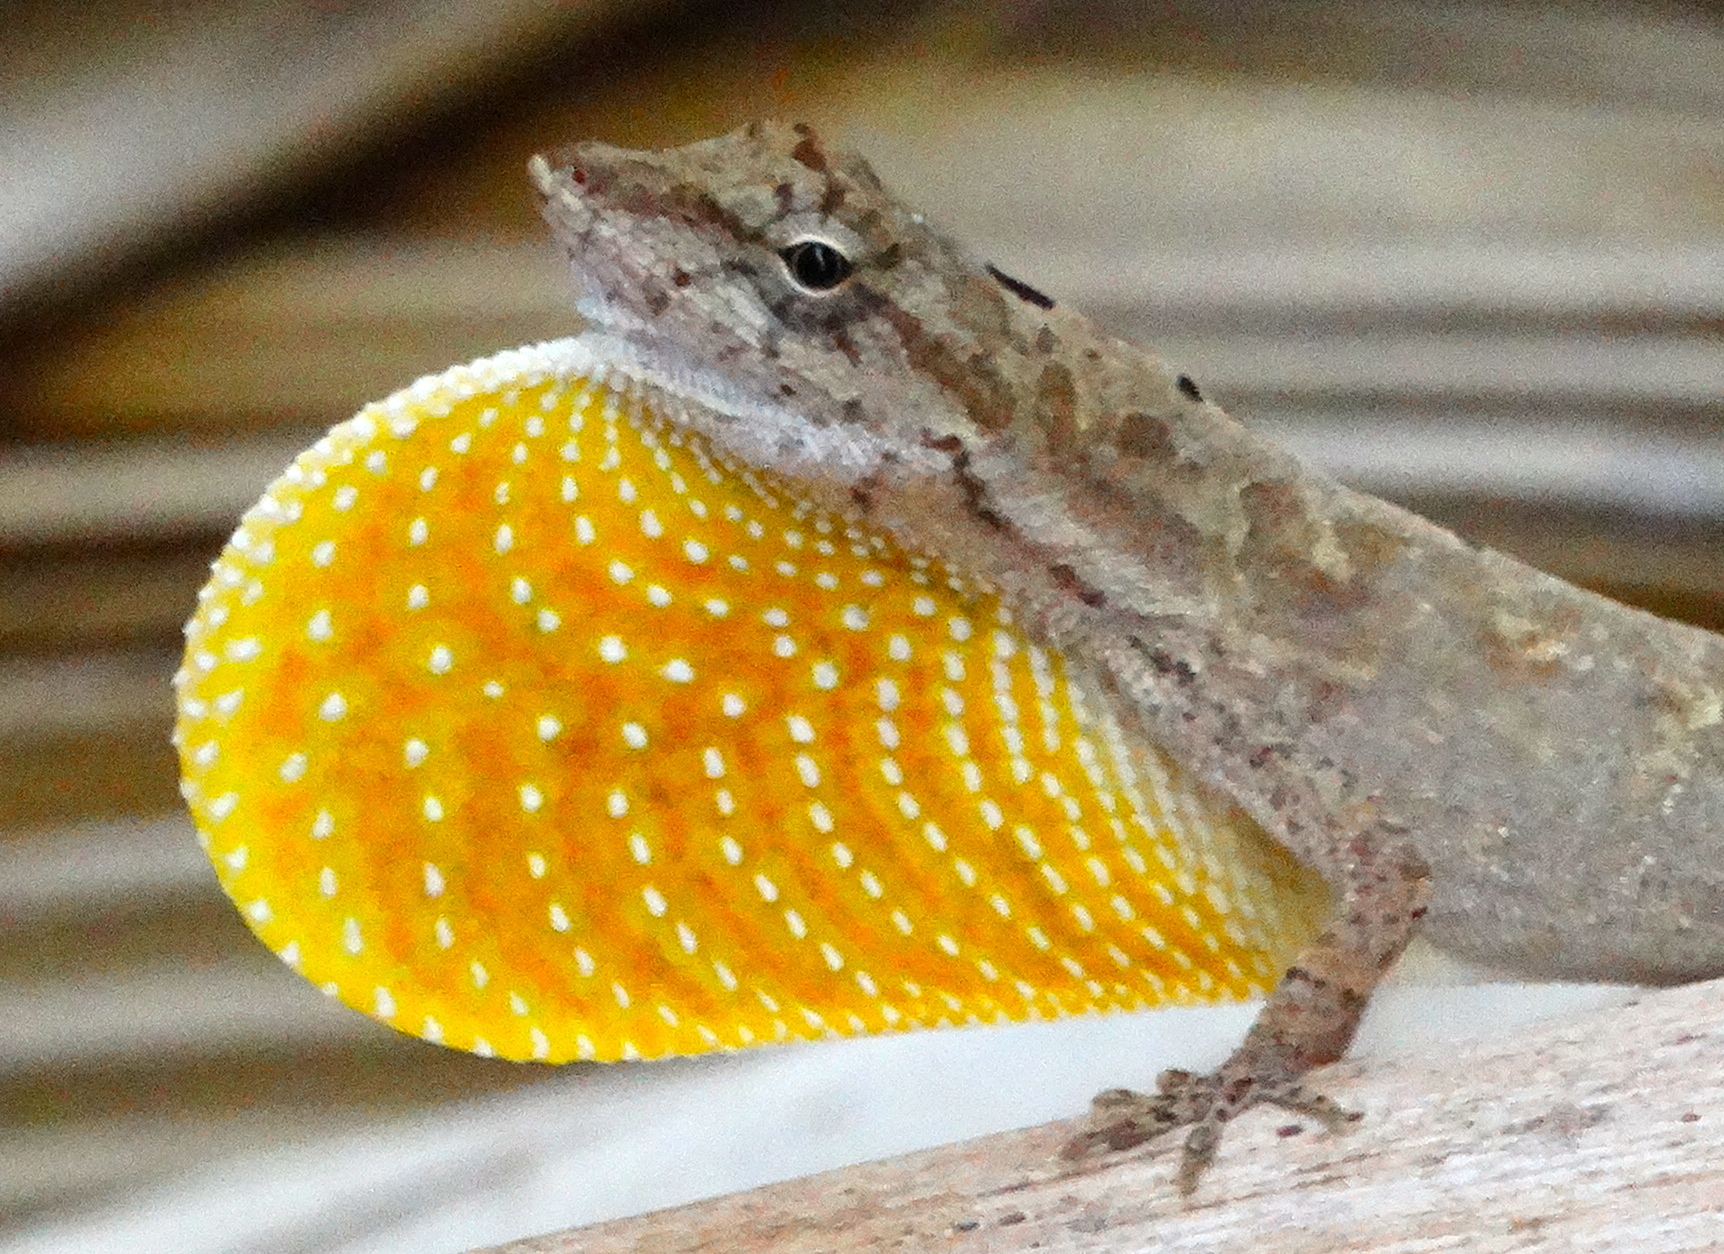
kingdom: Animalia
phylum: Chordata
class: Squamata
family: Dactyloidae
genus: Anolis
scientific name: Anolis nebulosus
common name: Clouded anole
